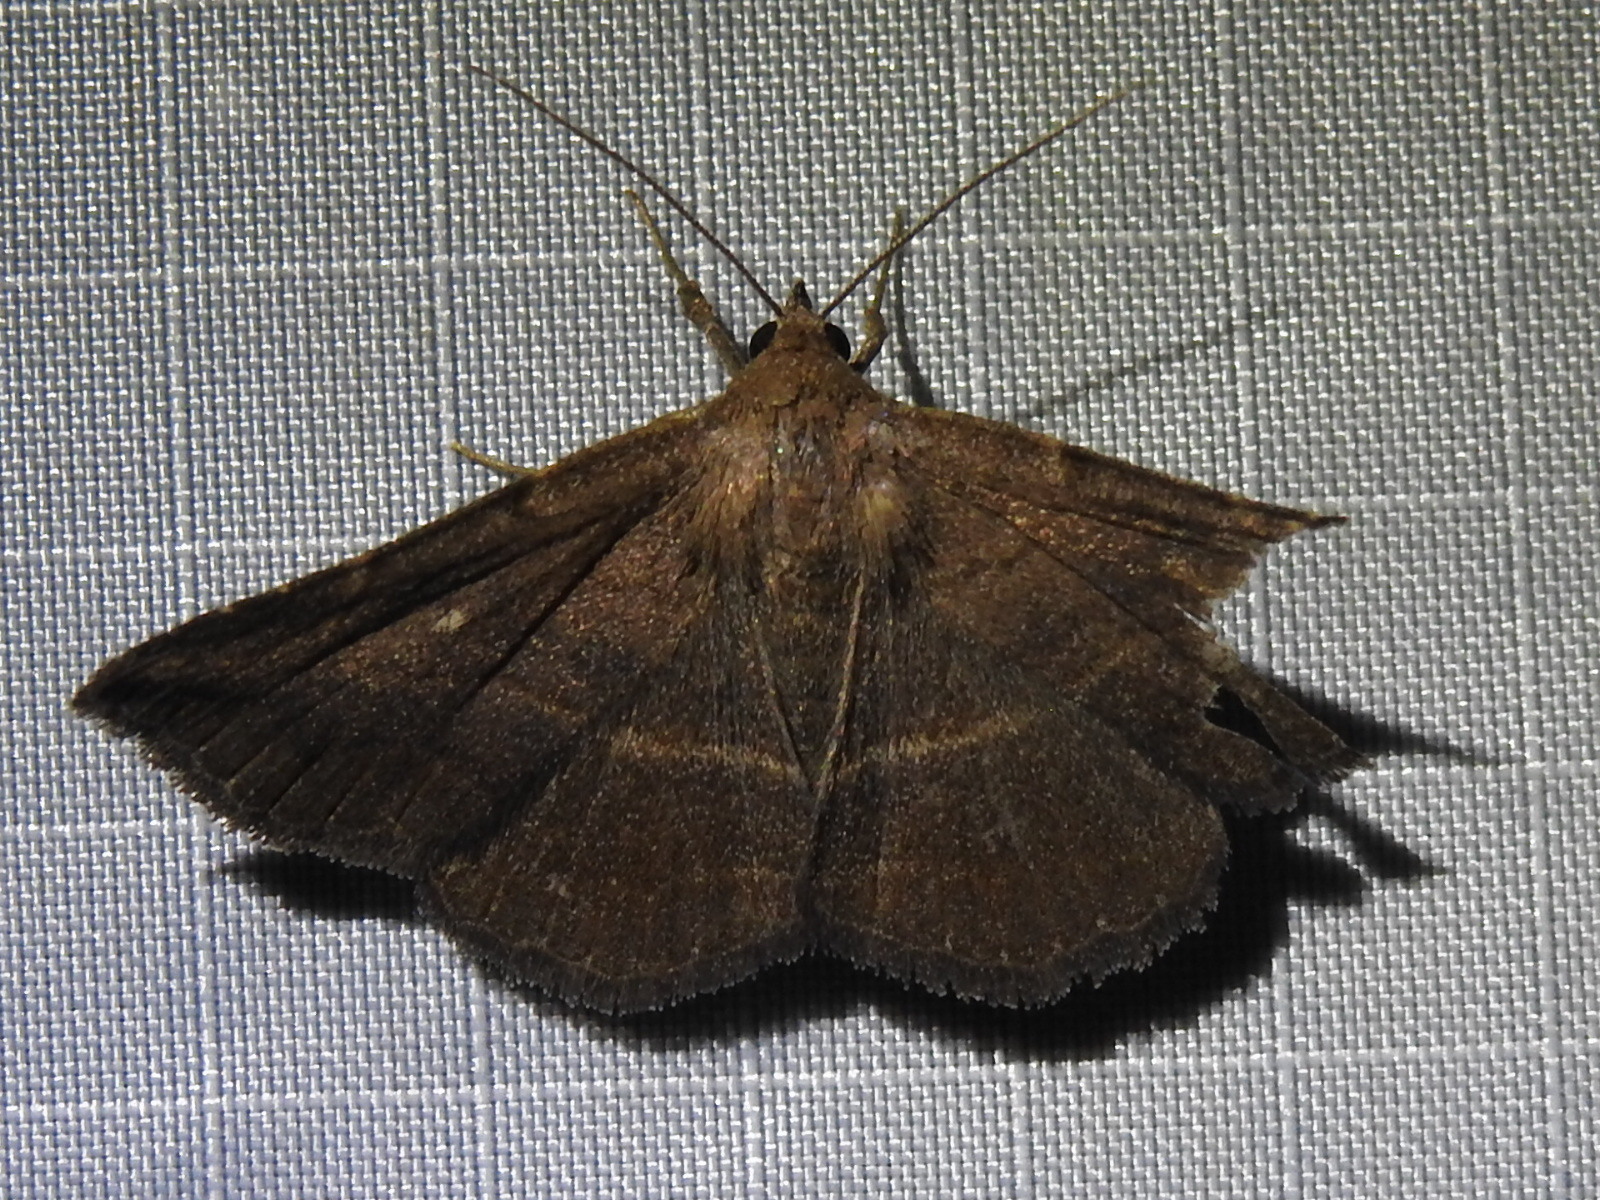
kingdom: Animalia
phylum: Arthropoda
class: Insecta
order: Lepidoptera
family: Erebidae
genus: Lesmone
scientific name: Lesmone detrahens
